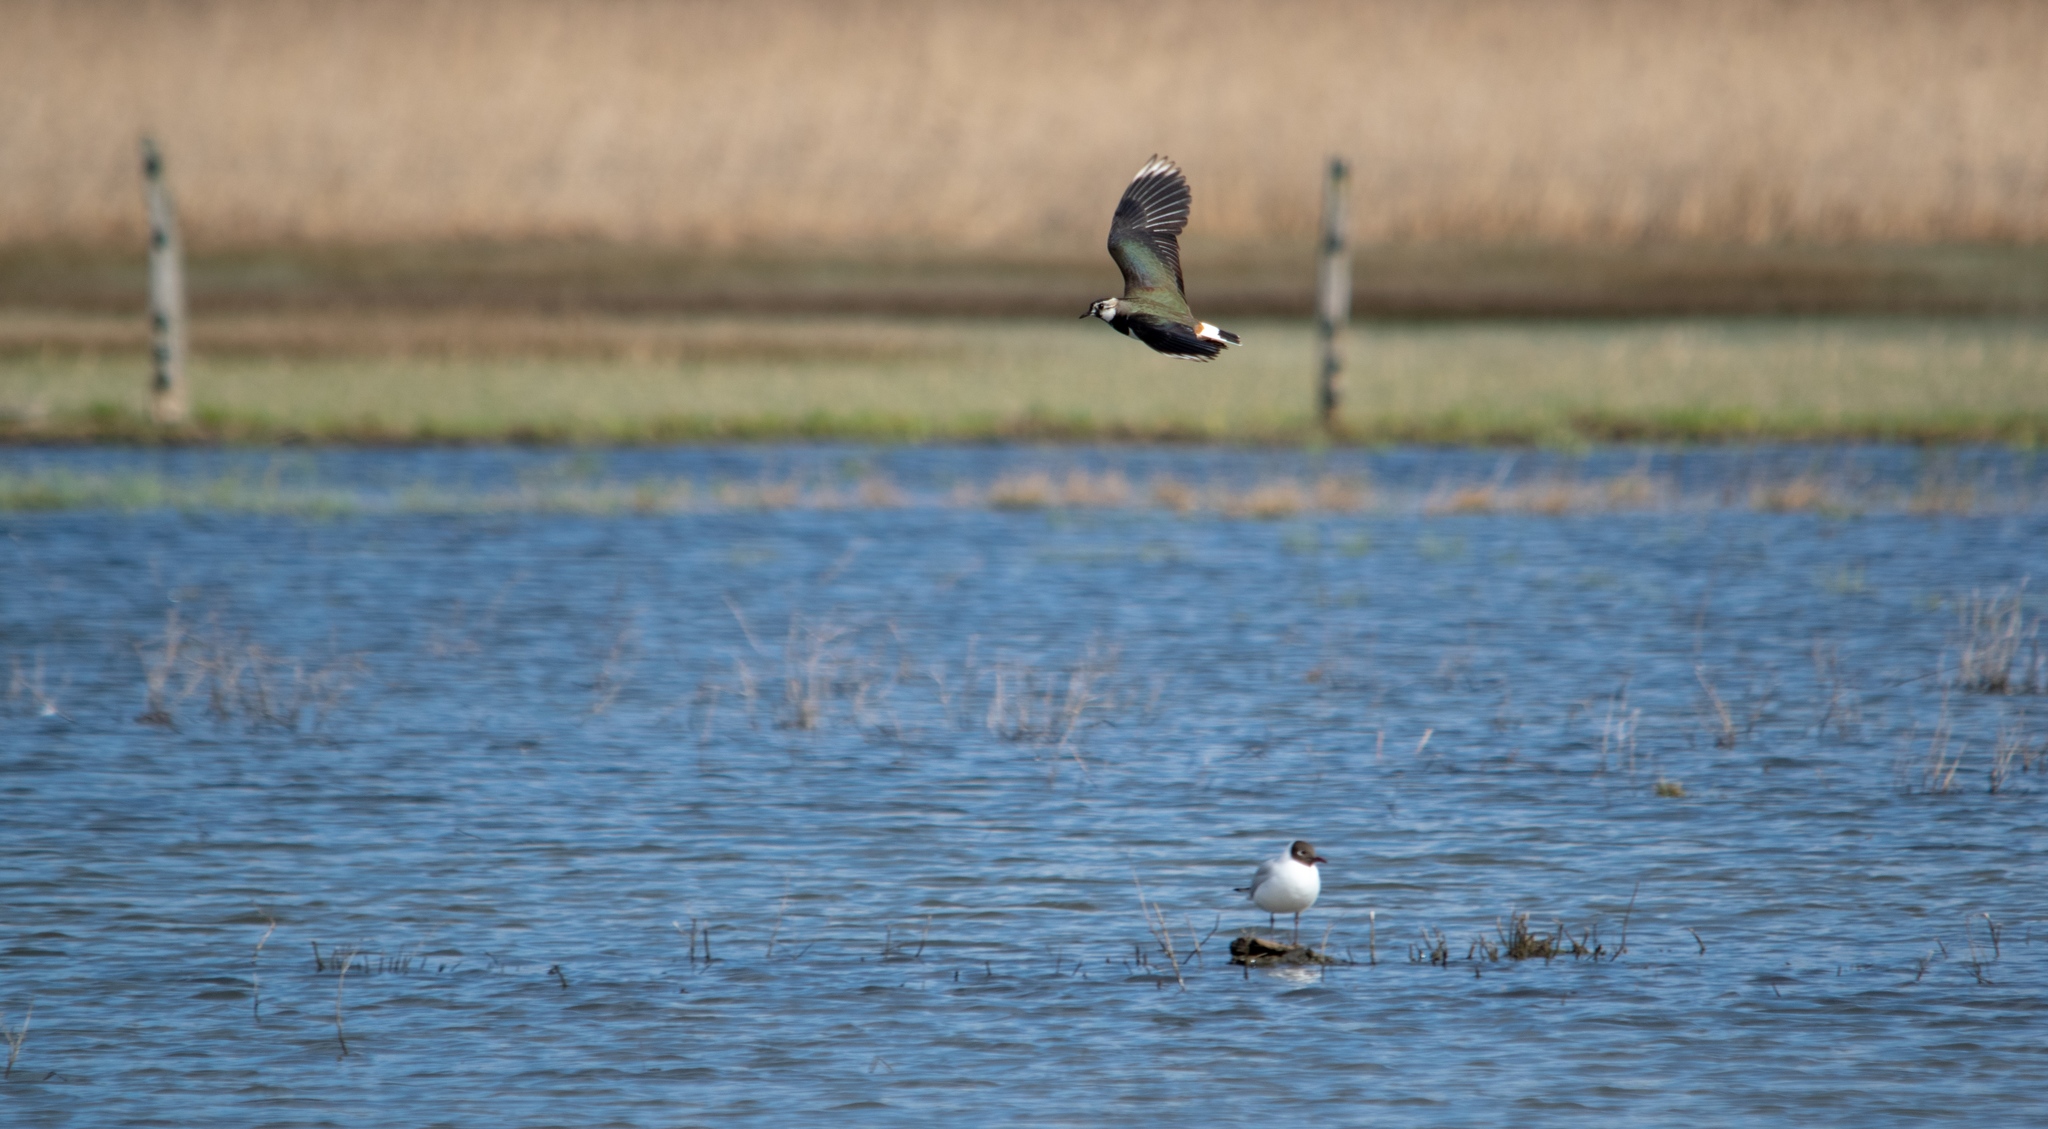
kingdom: Animalia
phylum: Chordata
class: Aves
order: Charadriiformes
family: Charadriidae
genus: Vanellus
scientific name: Vanellus vanellus
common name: Northern lapwing
